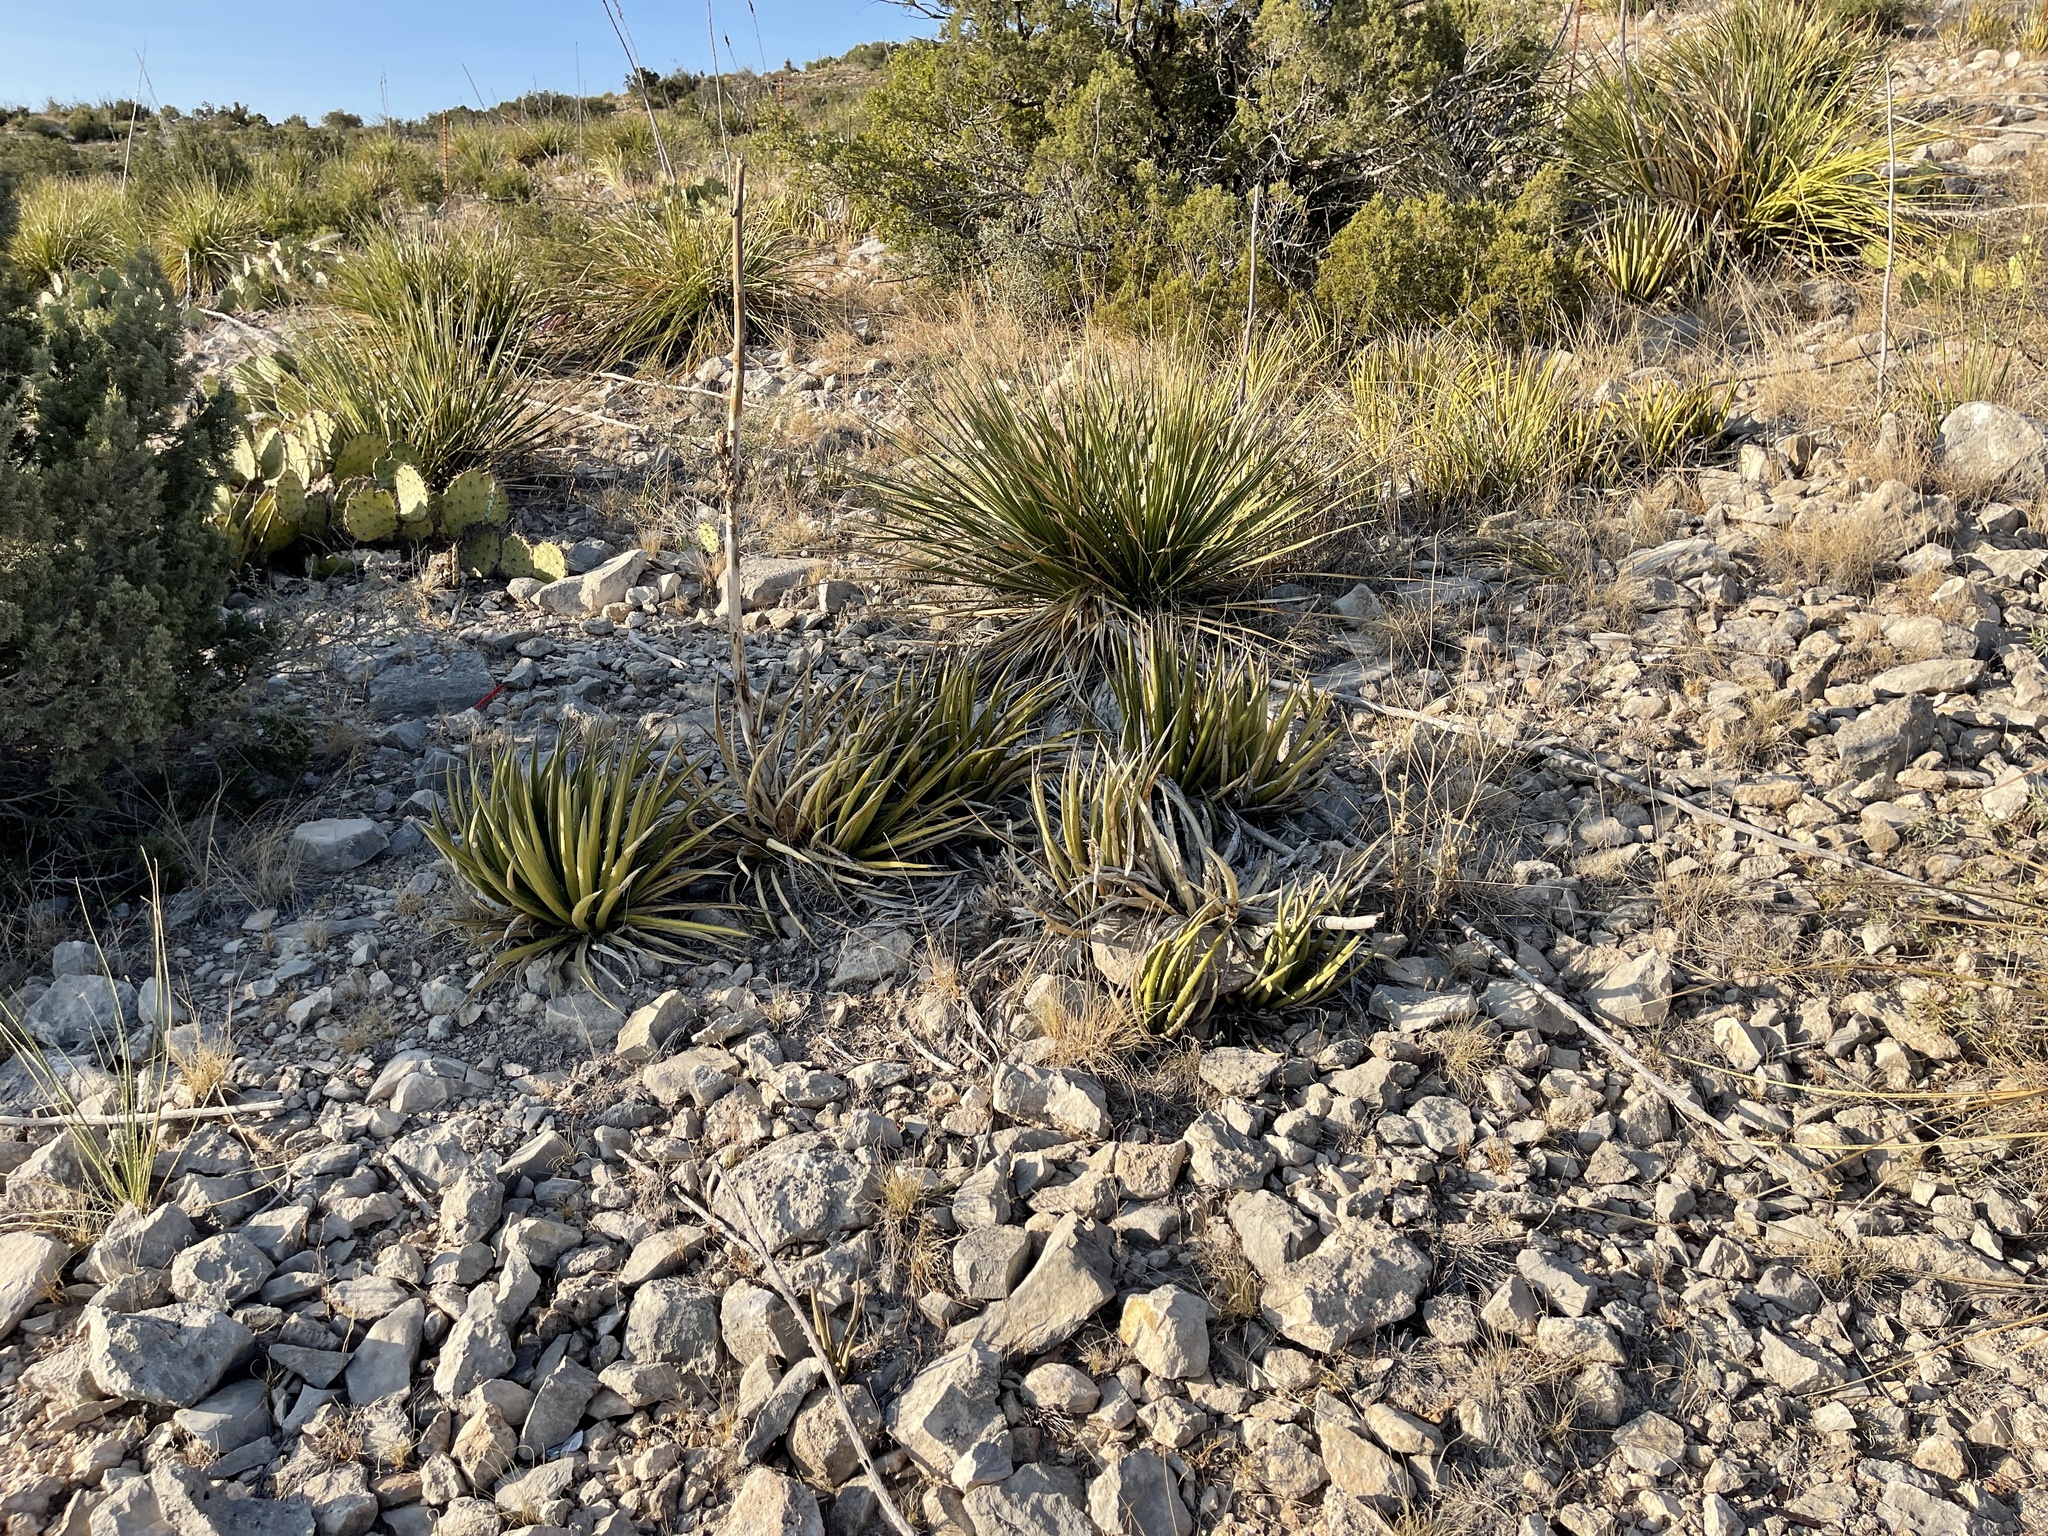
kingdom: Plantae
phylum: Tracheophyta
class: Liliopsida
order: Asparagales
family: Asparagaceae
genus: Agave
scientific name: Agave lechuguilla
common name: Lecheguilla agave
